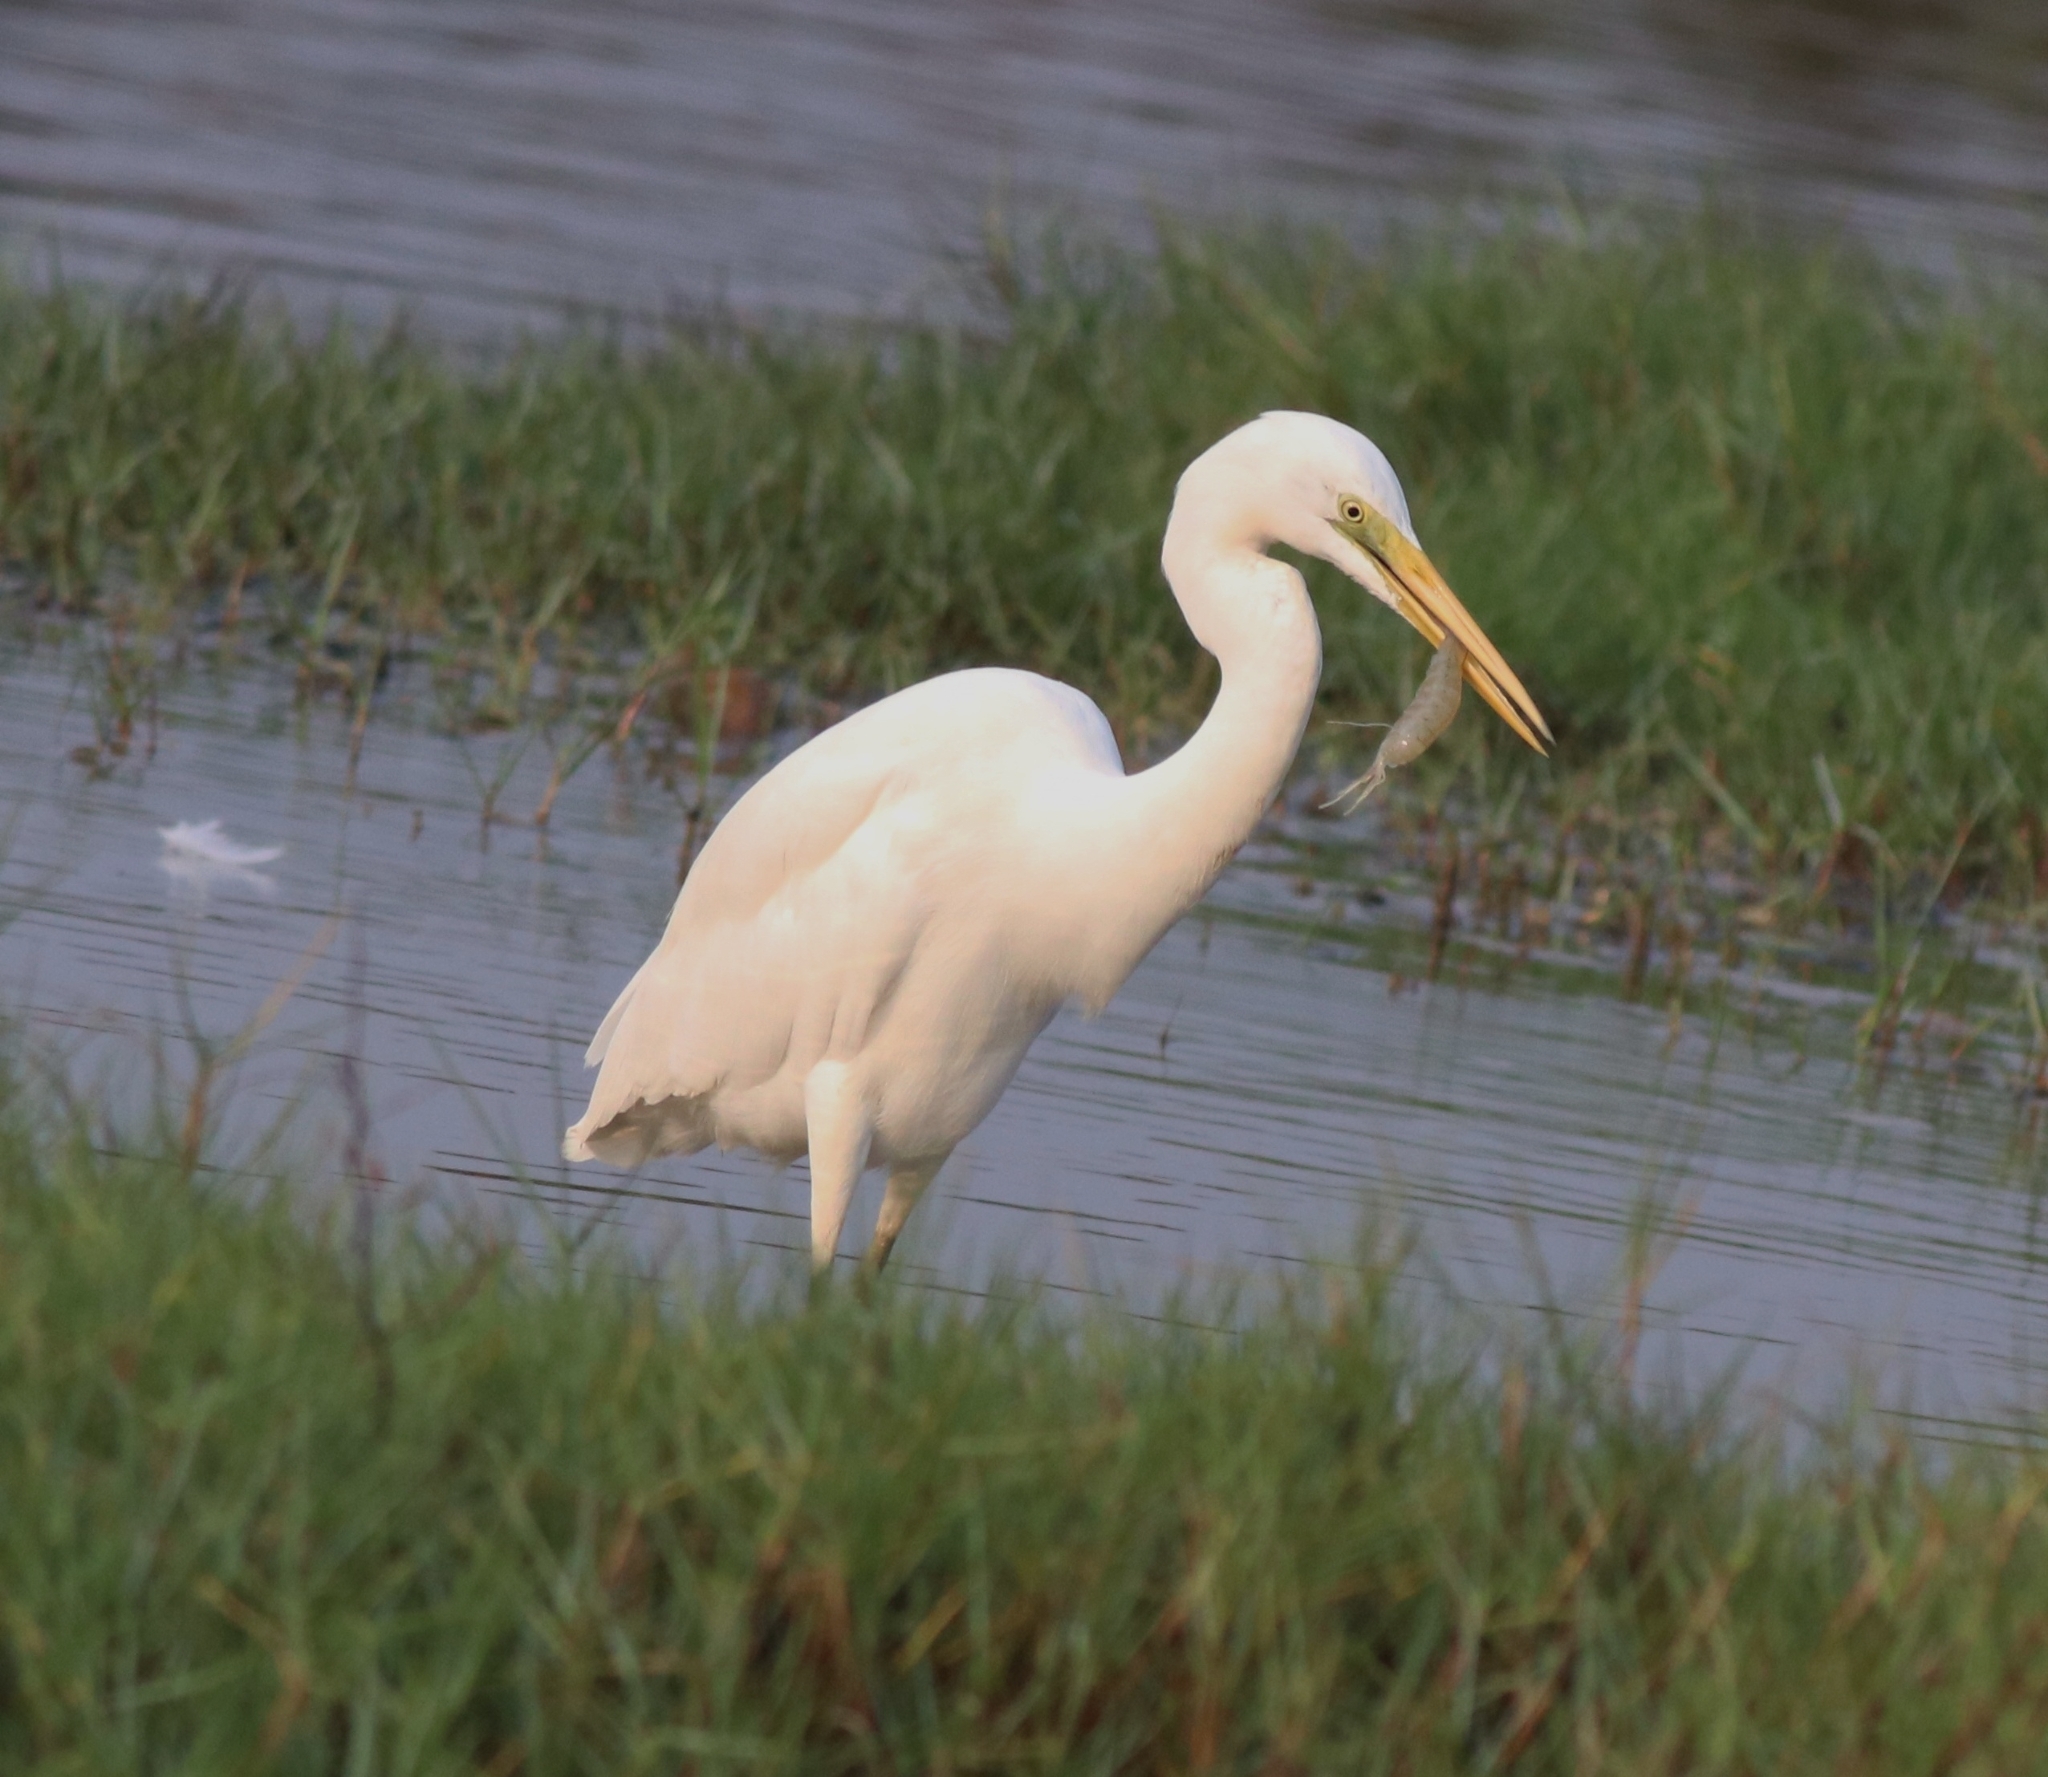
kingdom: Animalia
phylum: Chordata
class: Aves
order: Pelecaniformes
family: Ardeidae
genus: Ardea
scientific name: Ardea alba
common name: Great egret
